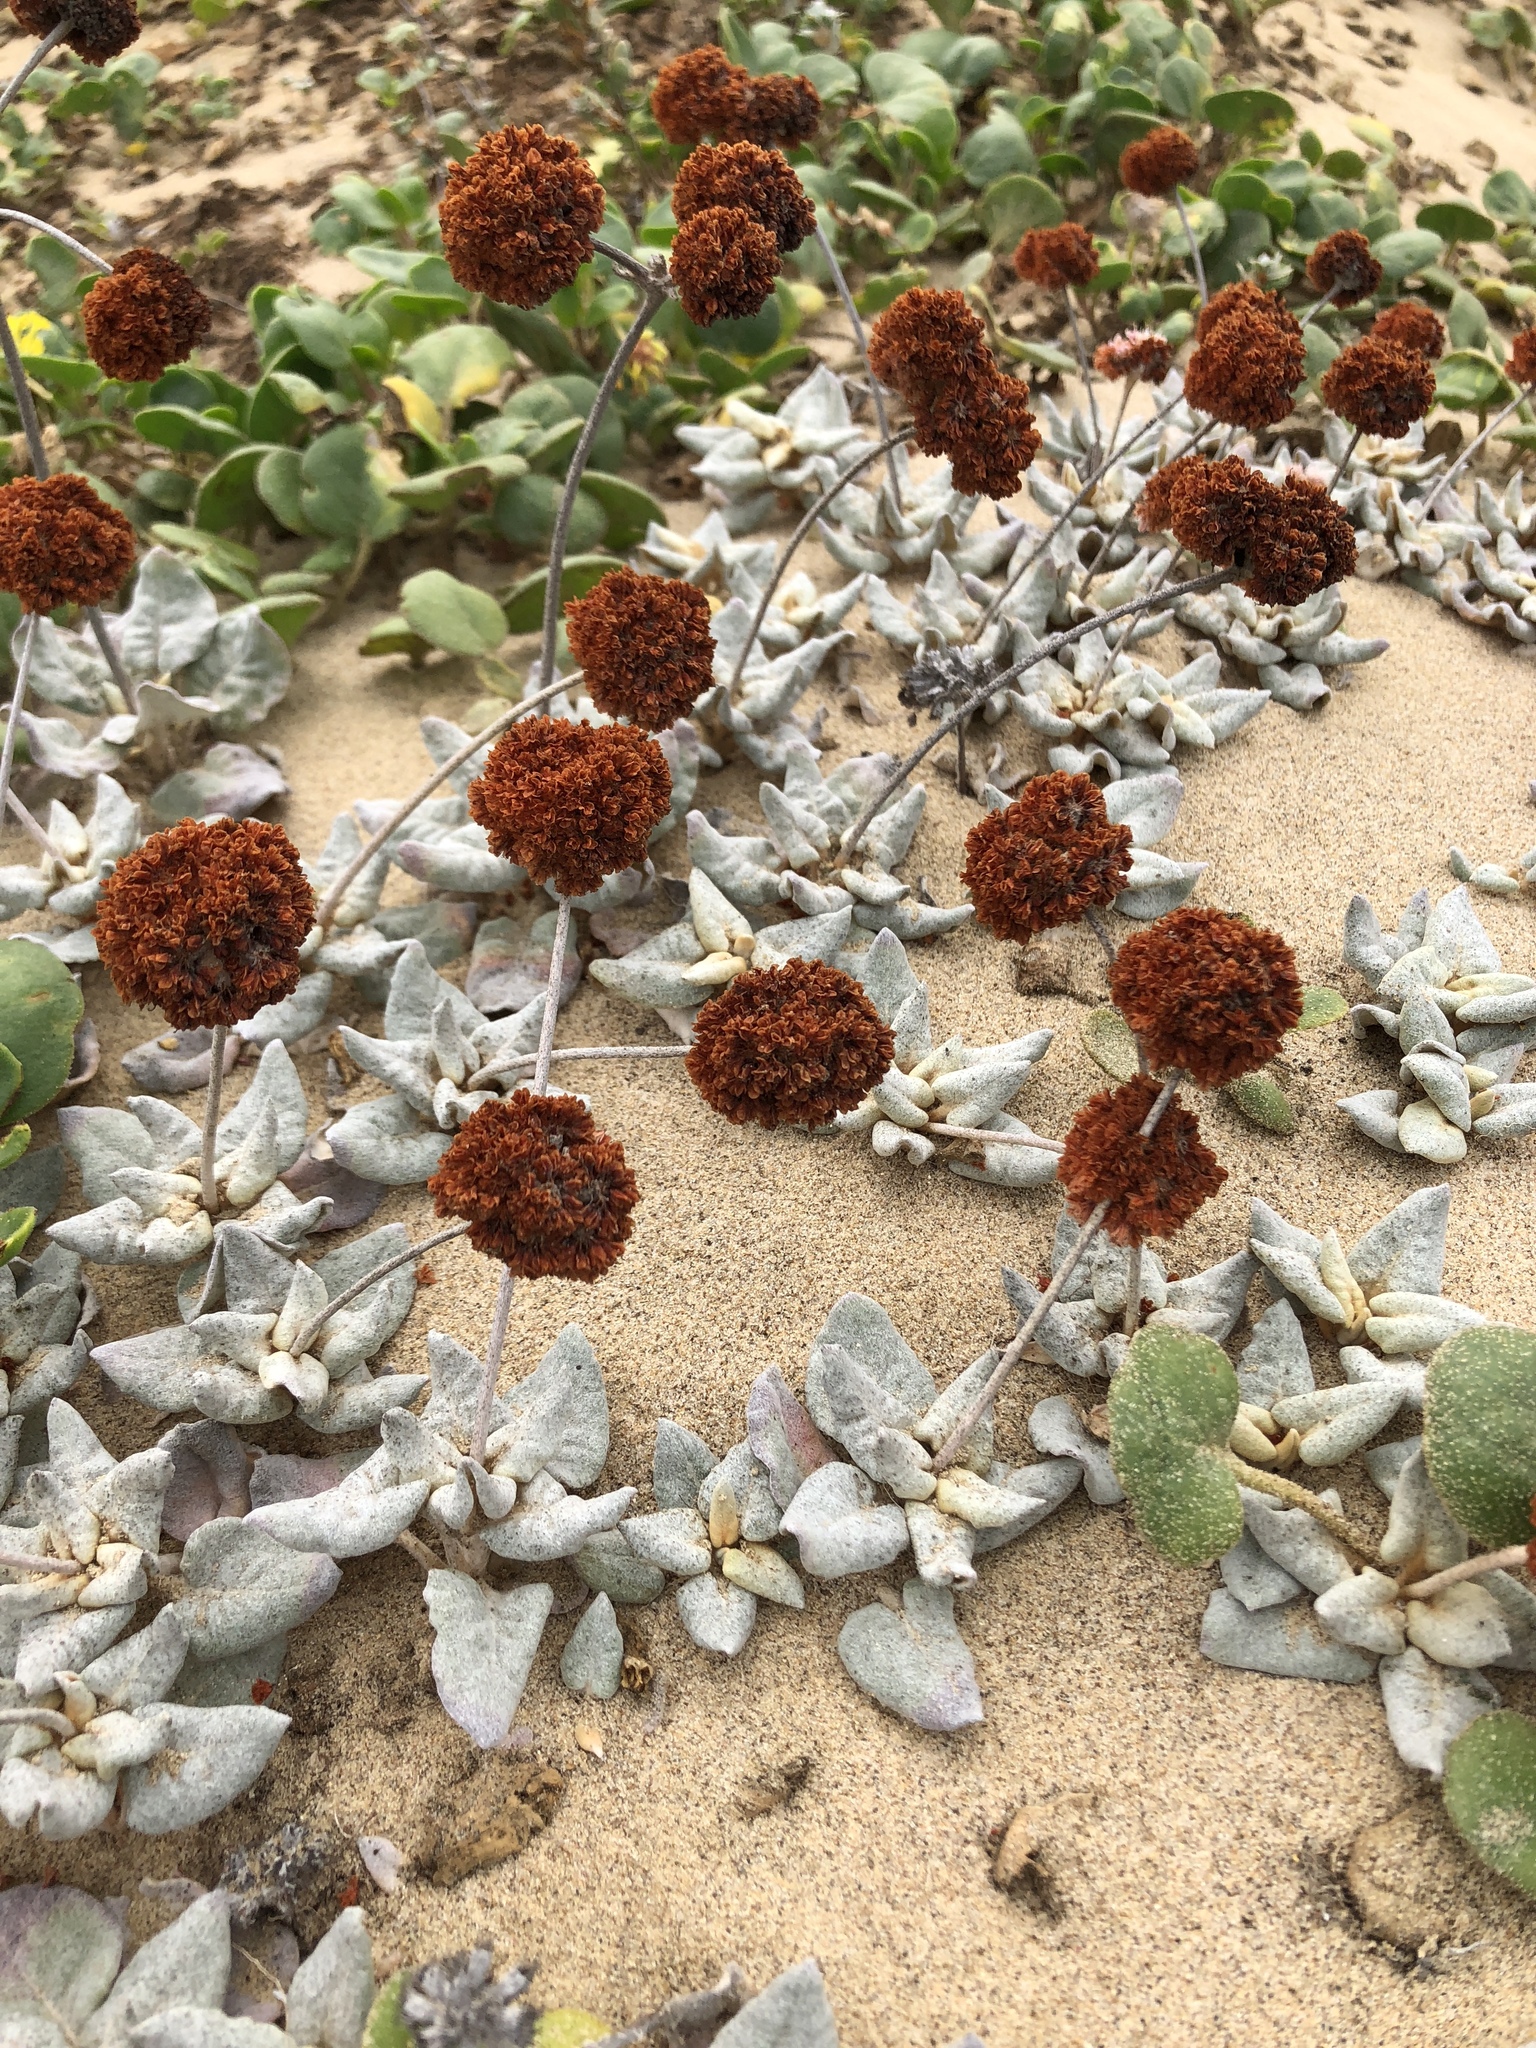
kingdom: Plantae
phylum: Tracheophyta
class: Magnoliopsida
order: Caryophyllales
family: Polygonaceae
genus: Eriogonum
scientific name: Eriogonum latifolium
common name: Seaside wild buckwheat
